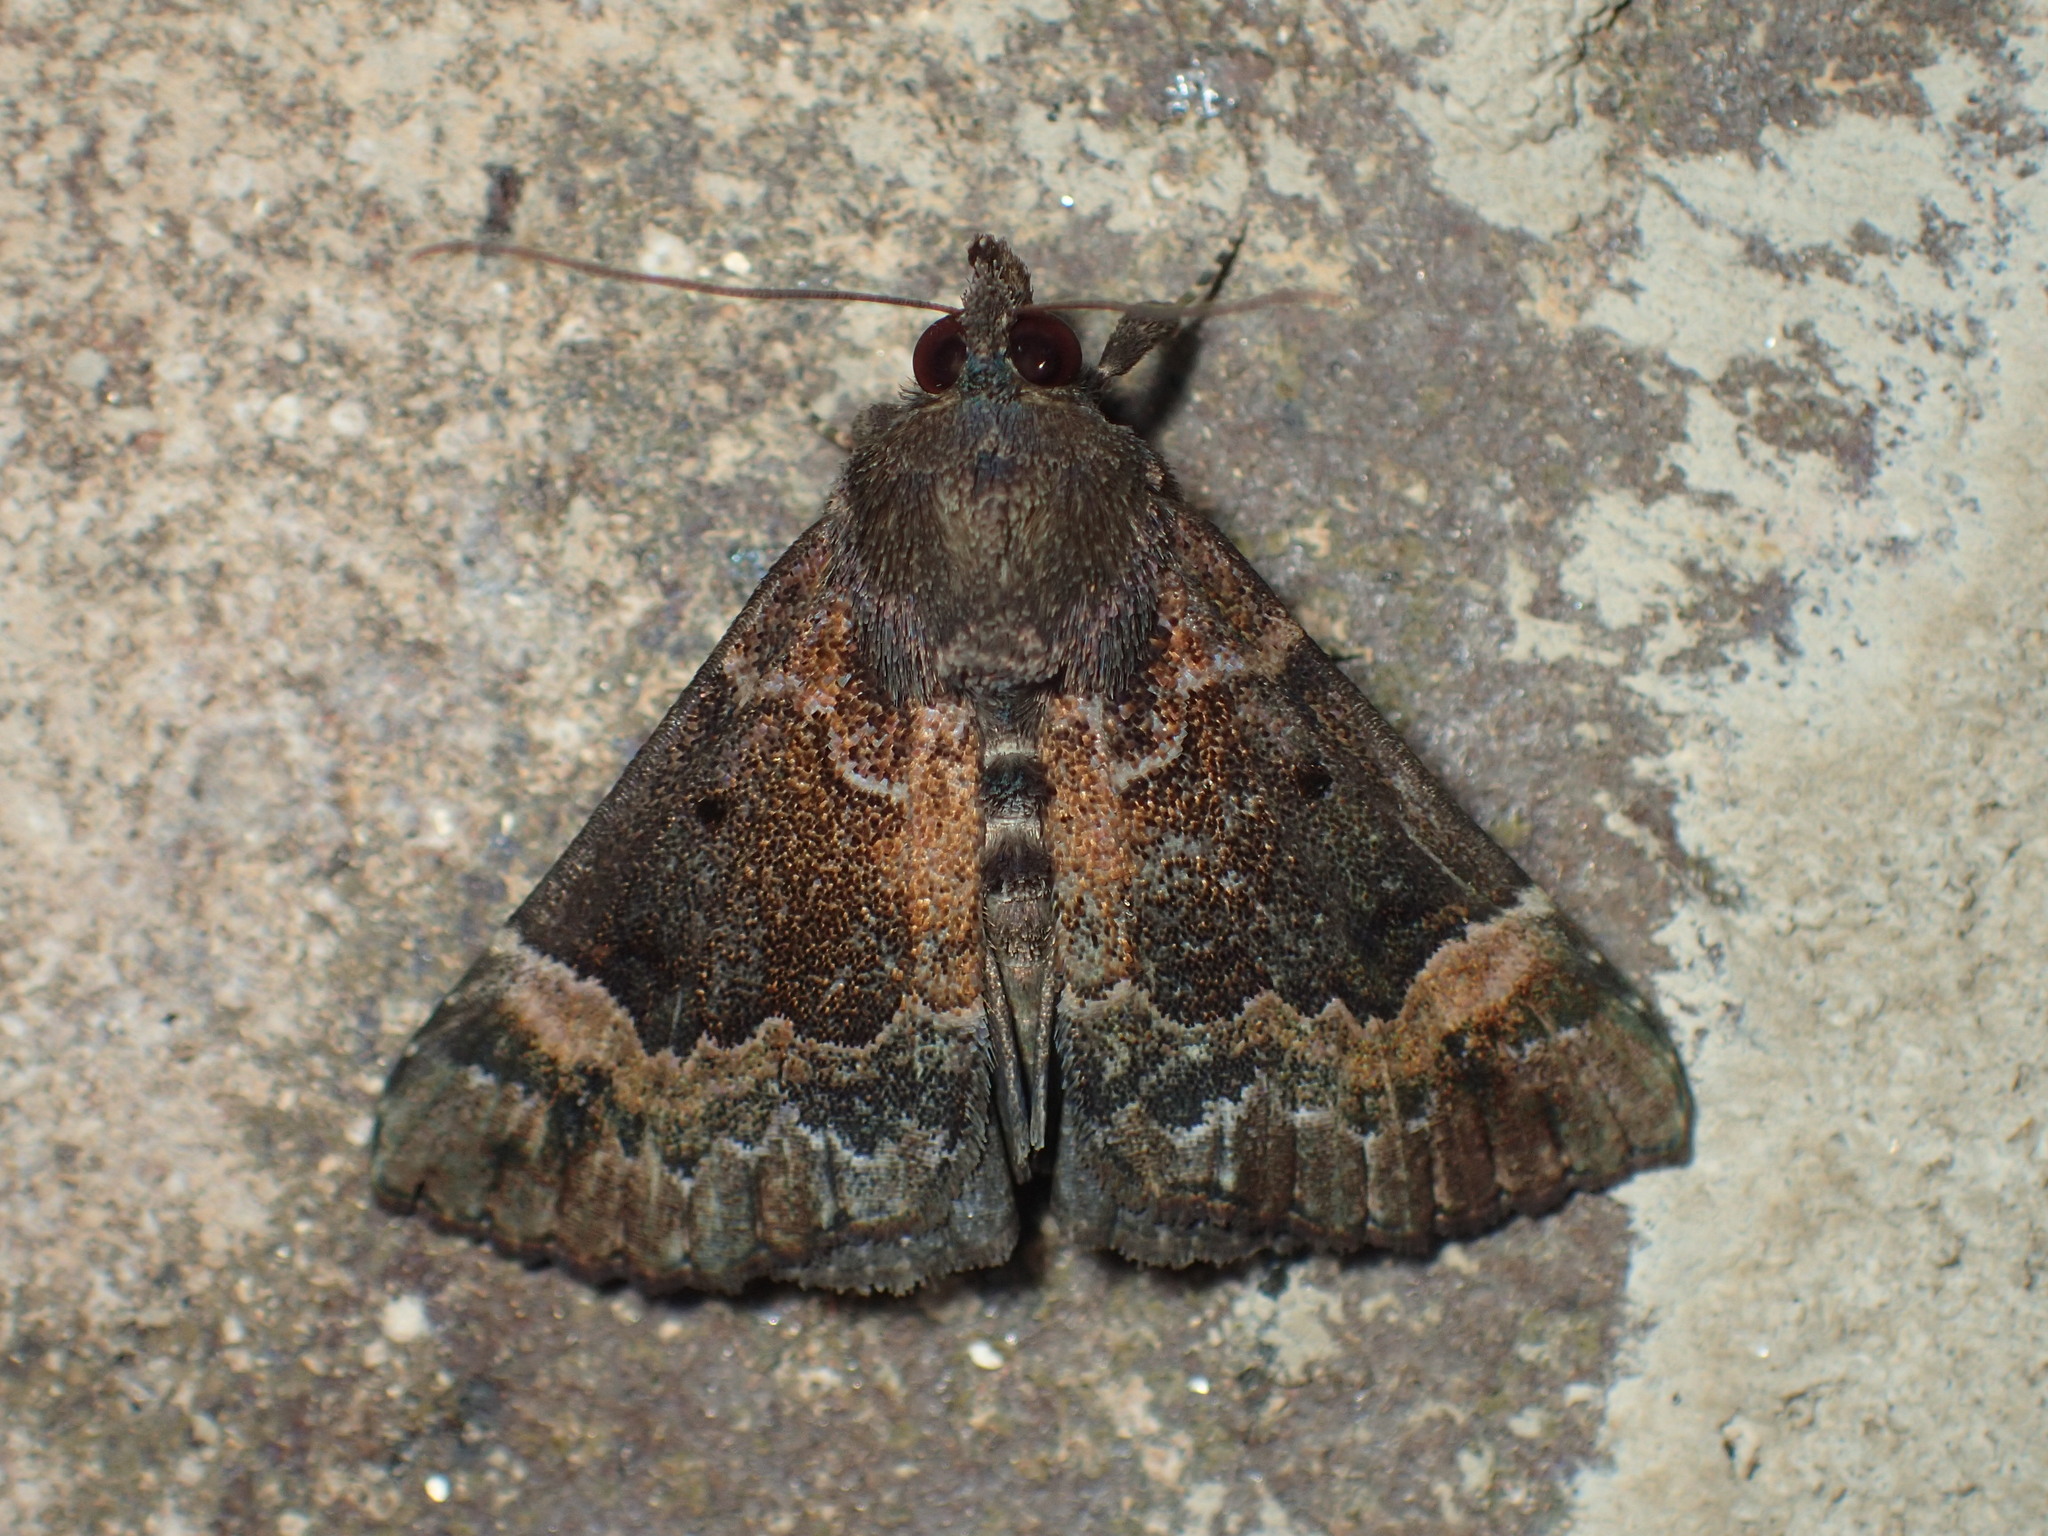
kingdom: Animalia
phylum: Arthropoda
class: Insecta
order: Lepidoptera
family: Erebidae
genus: Hypena
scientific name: Hypena palparia
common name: Mottled bomolocha moth
